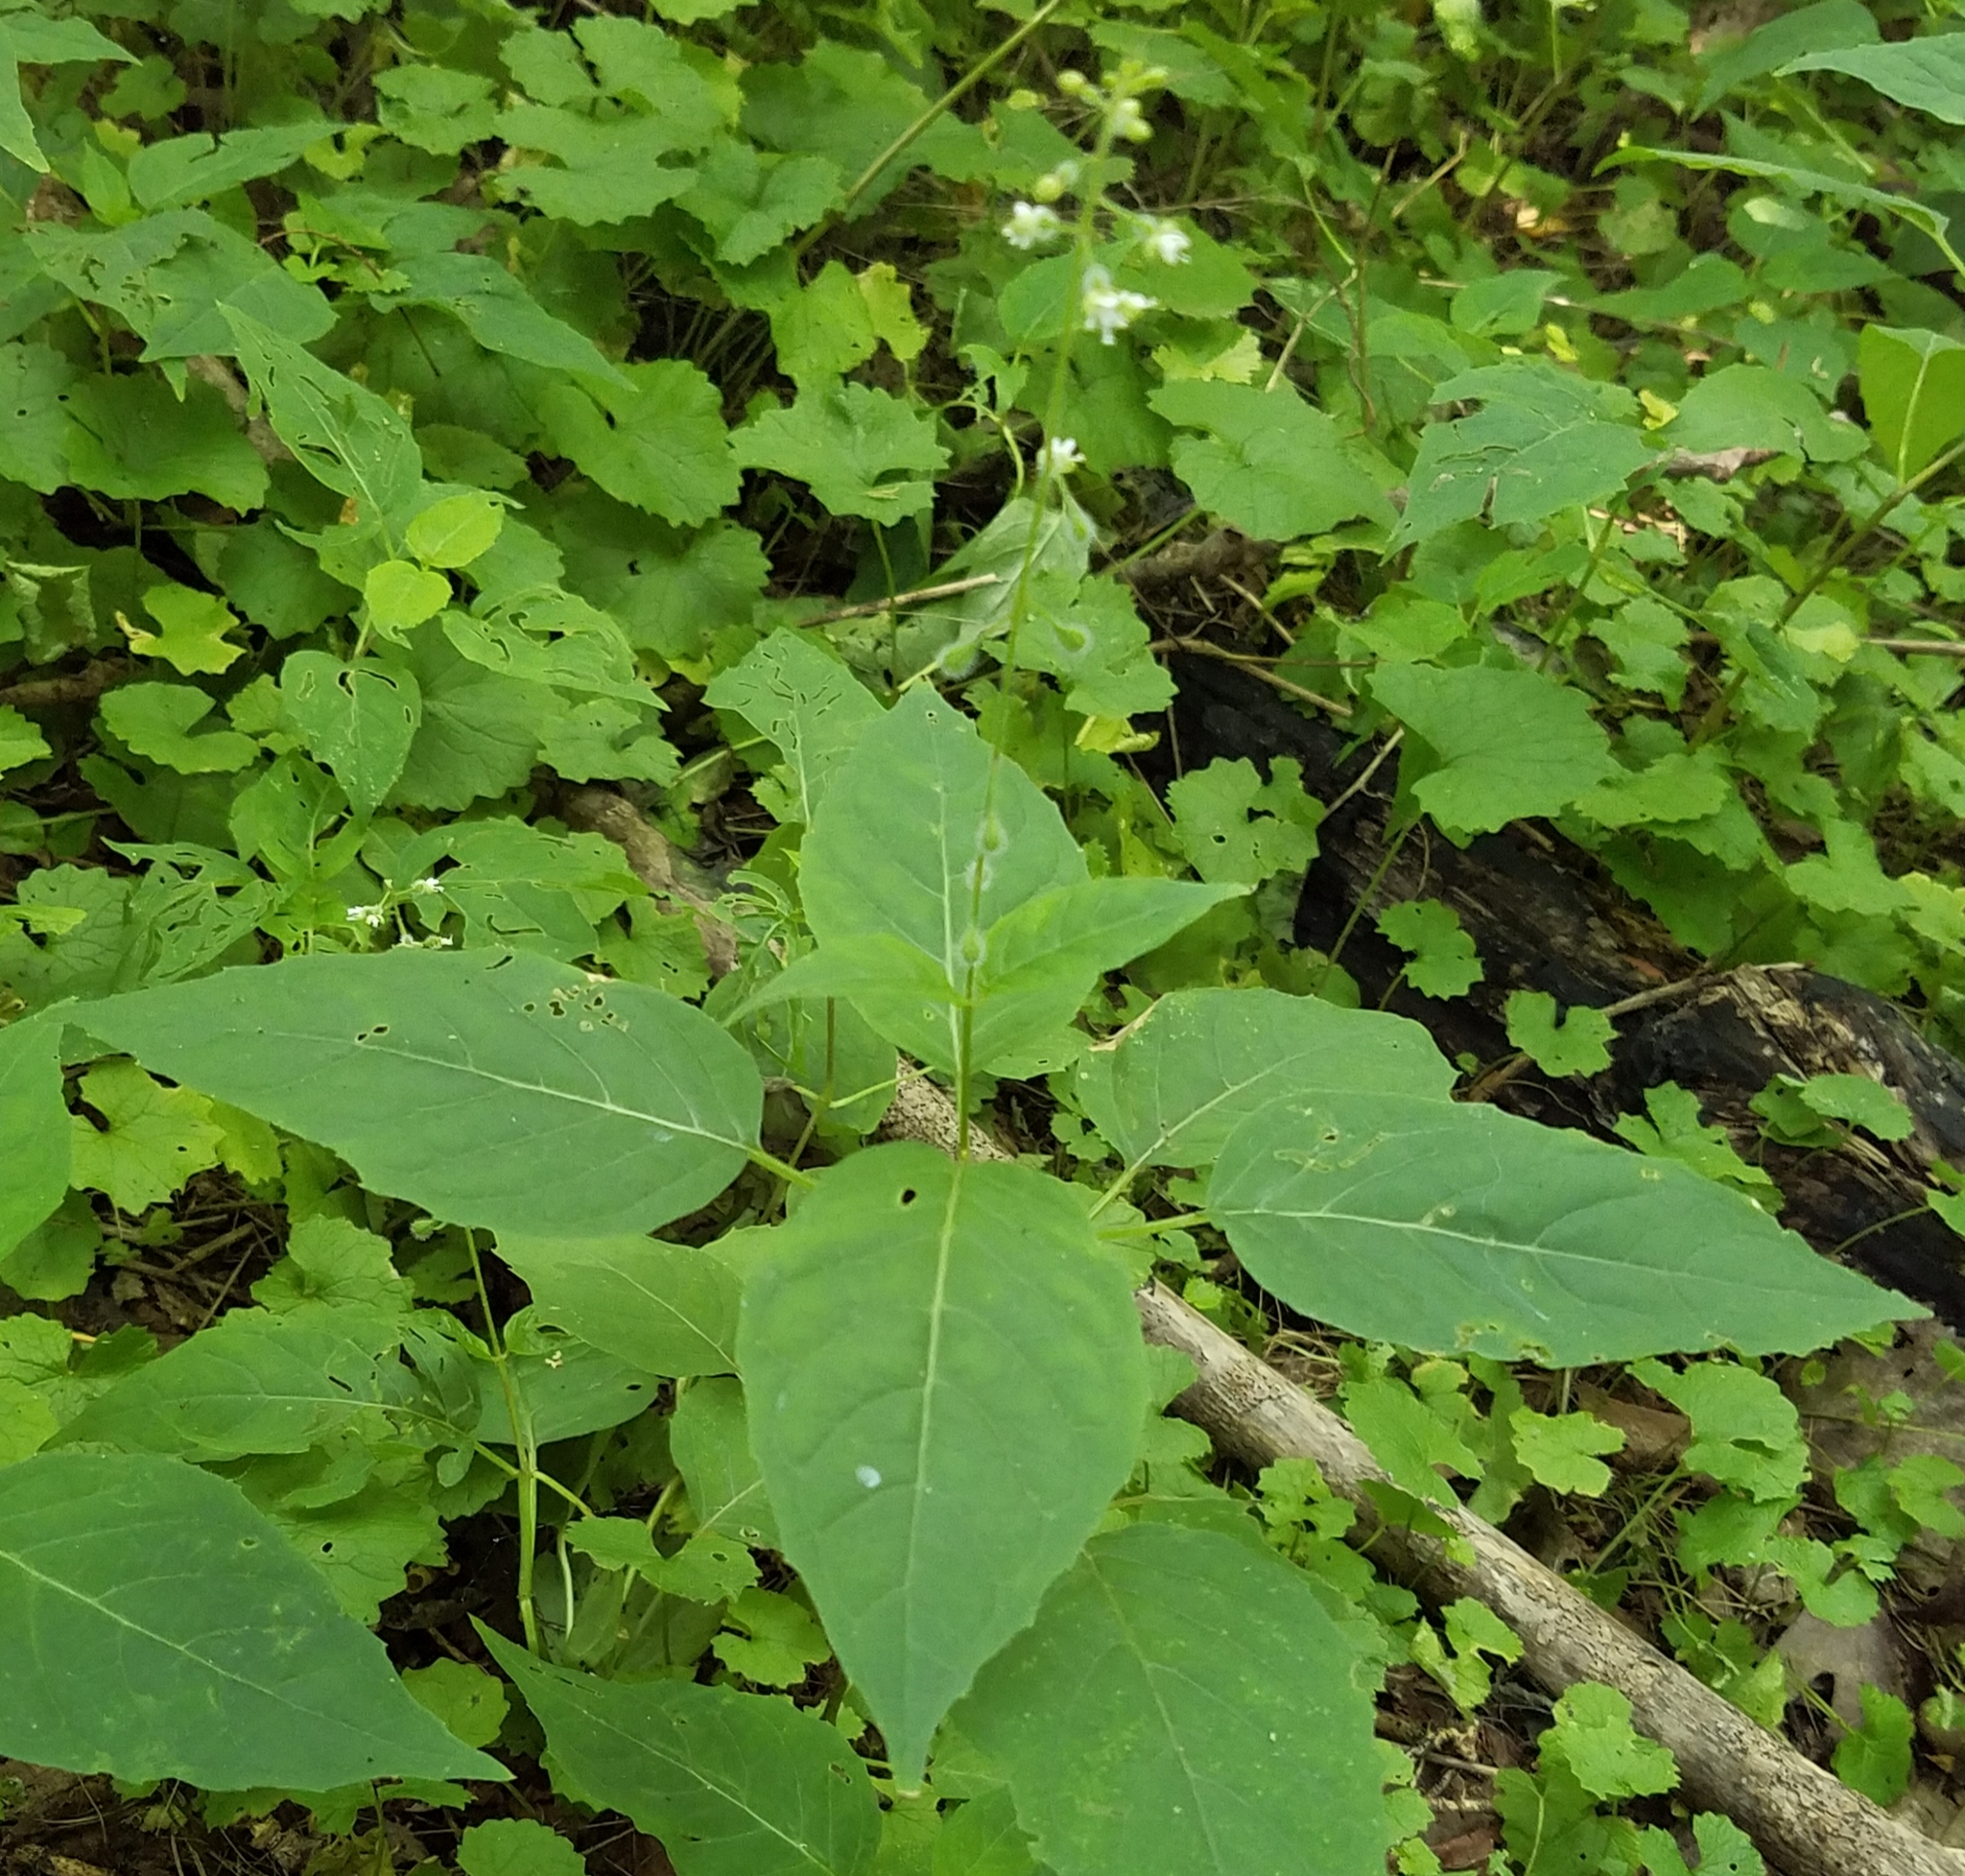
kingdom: Plantae
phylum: Tracheophyta
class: Magnoliopsida
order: Myrtales
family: Onagraceae
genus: Circaea
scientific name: Circaea canadensis
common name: Broad-leaved enchanter's nightshade
